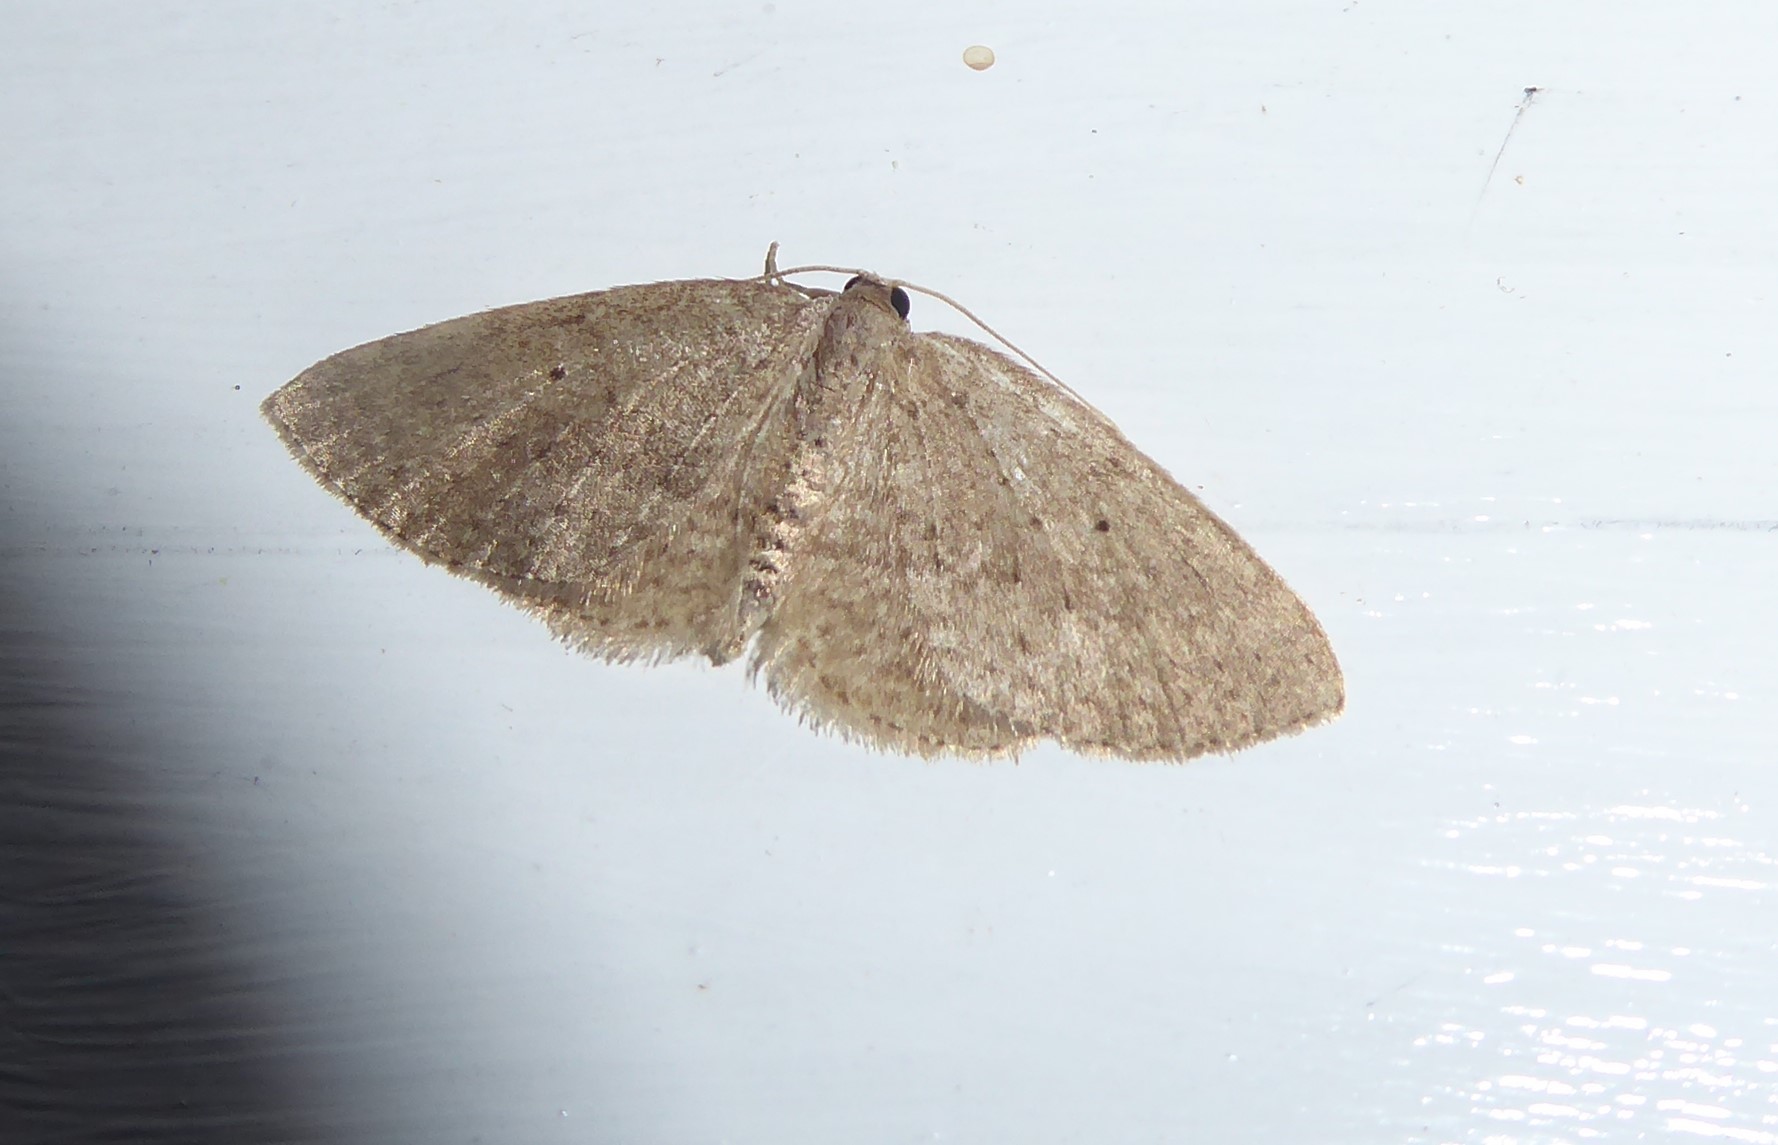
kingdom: Animalia
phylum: Arthropoda
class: Insecta
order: Lepidoptera
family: Geometridae
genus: Poecilasthena
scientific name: Poecilasthena schistaria
